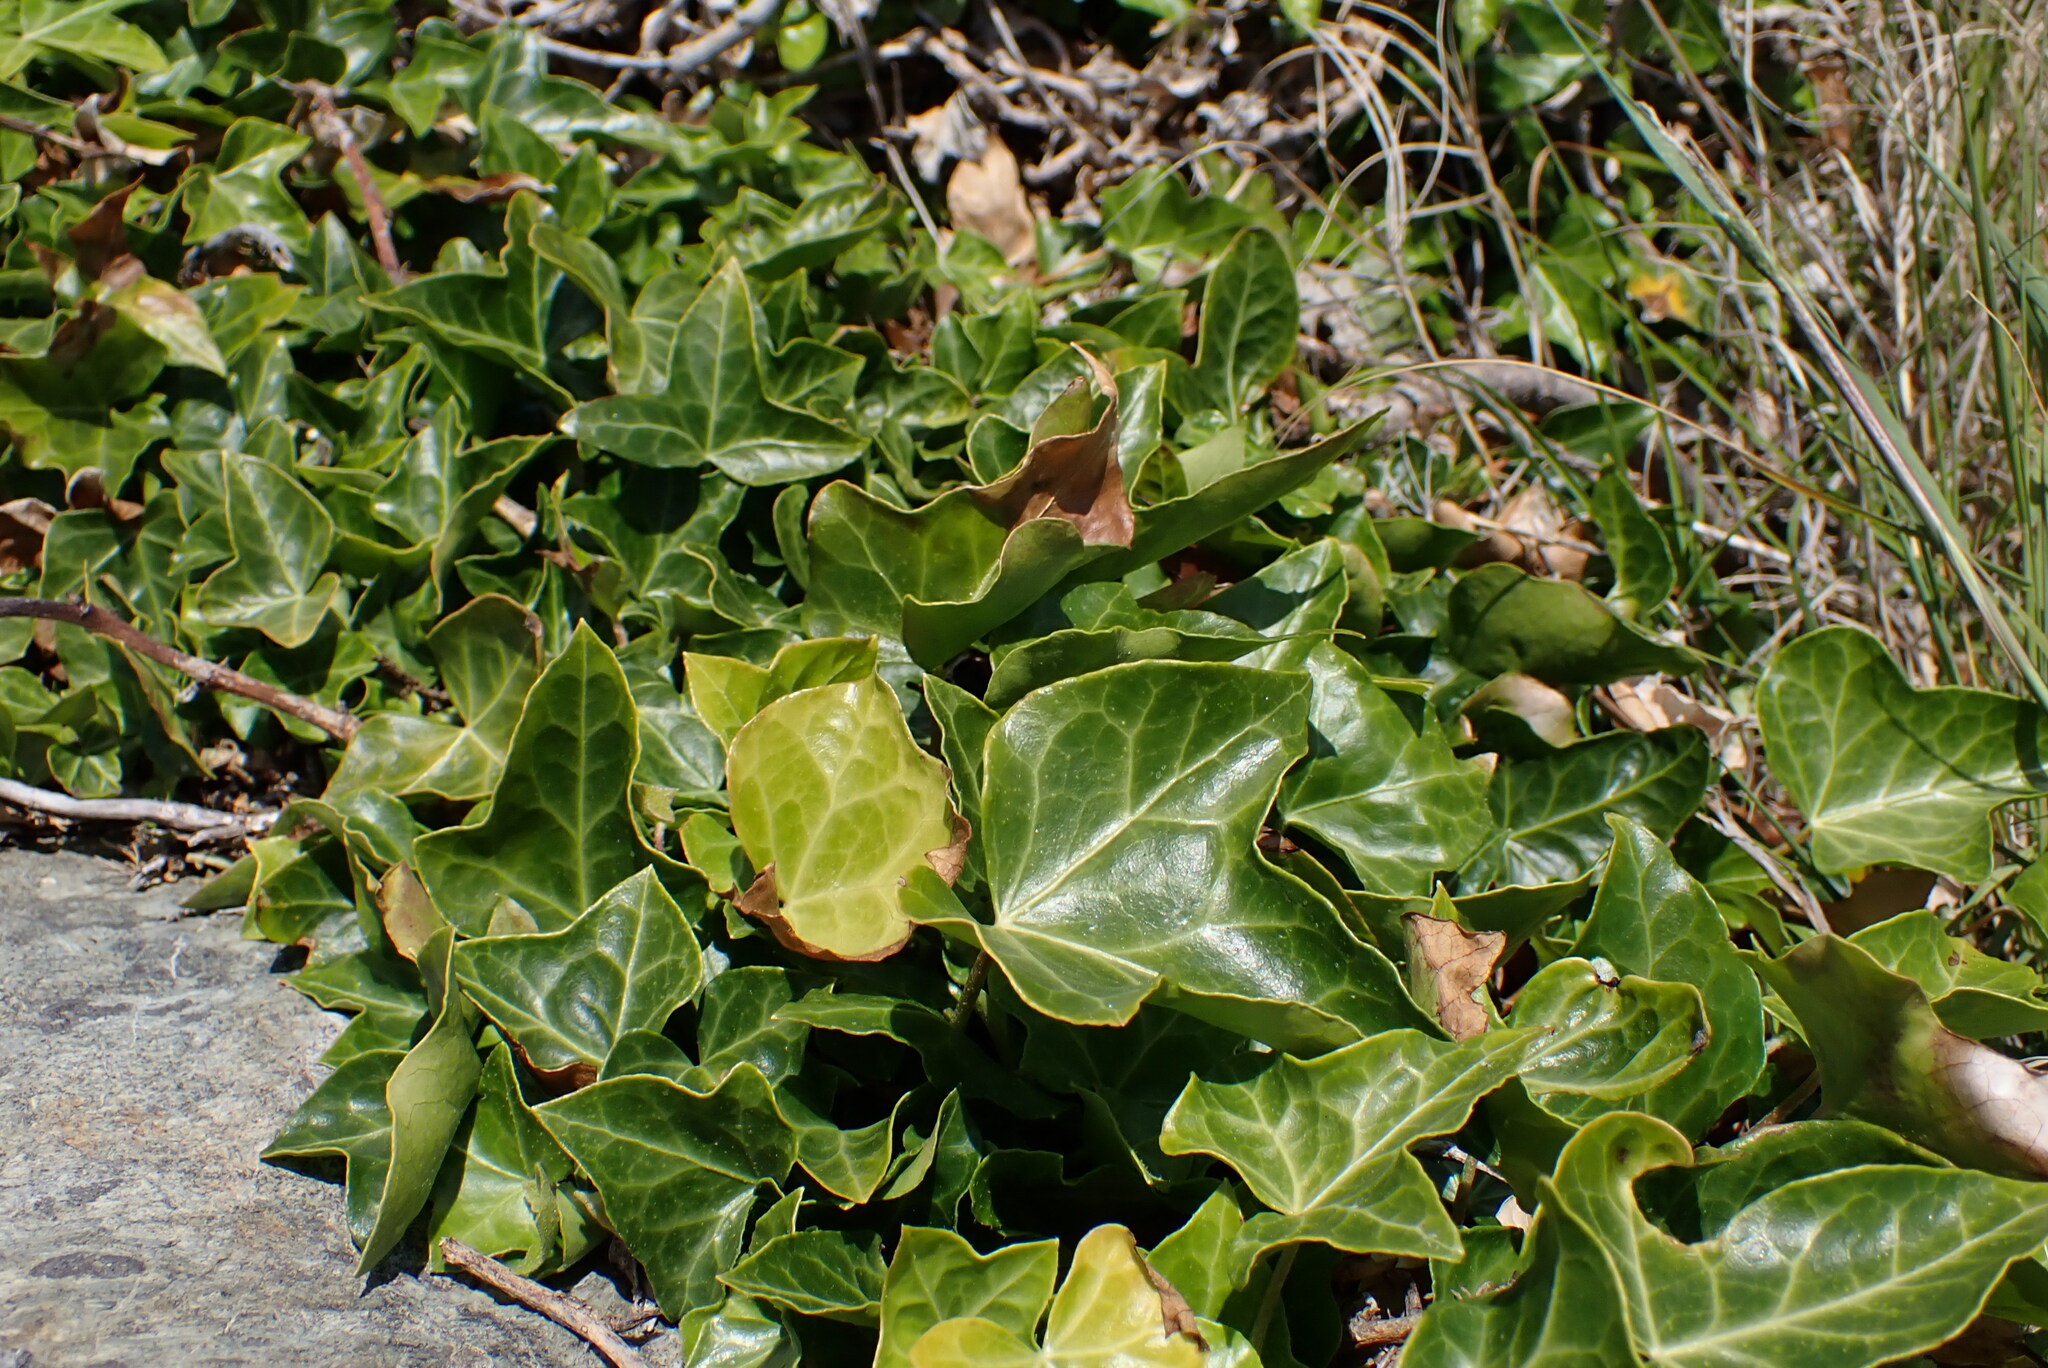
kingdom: Plantae
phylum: Tracheophyta
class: Magnoliopsida
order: Apiales
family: Araliaceae
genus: Hedera
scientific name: Hedera helix
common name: Ivy
